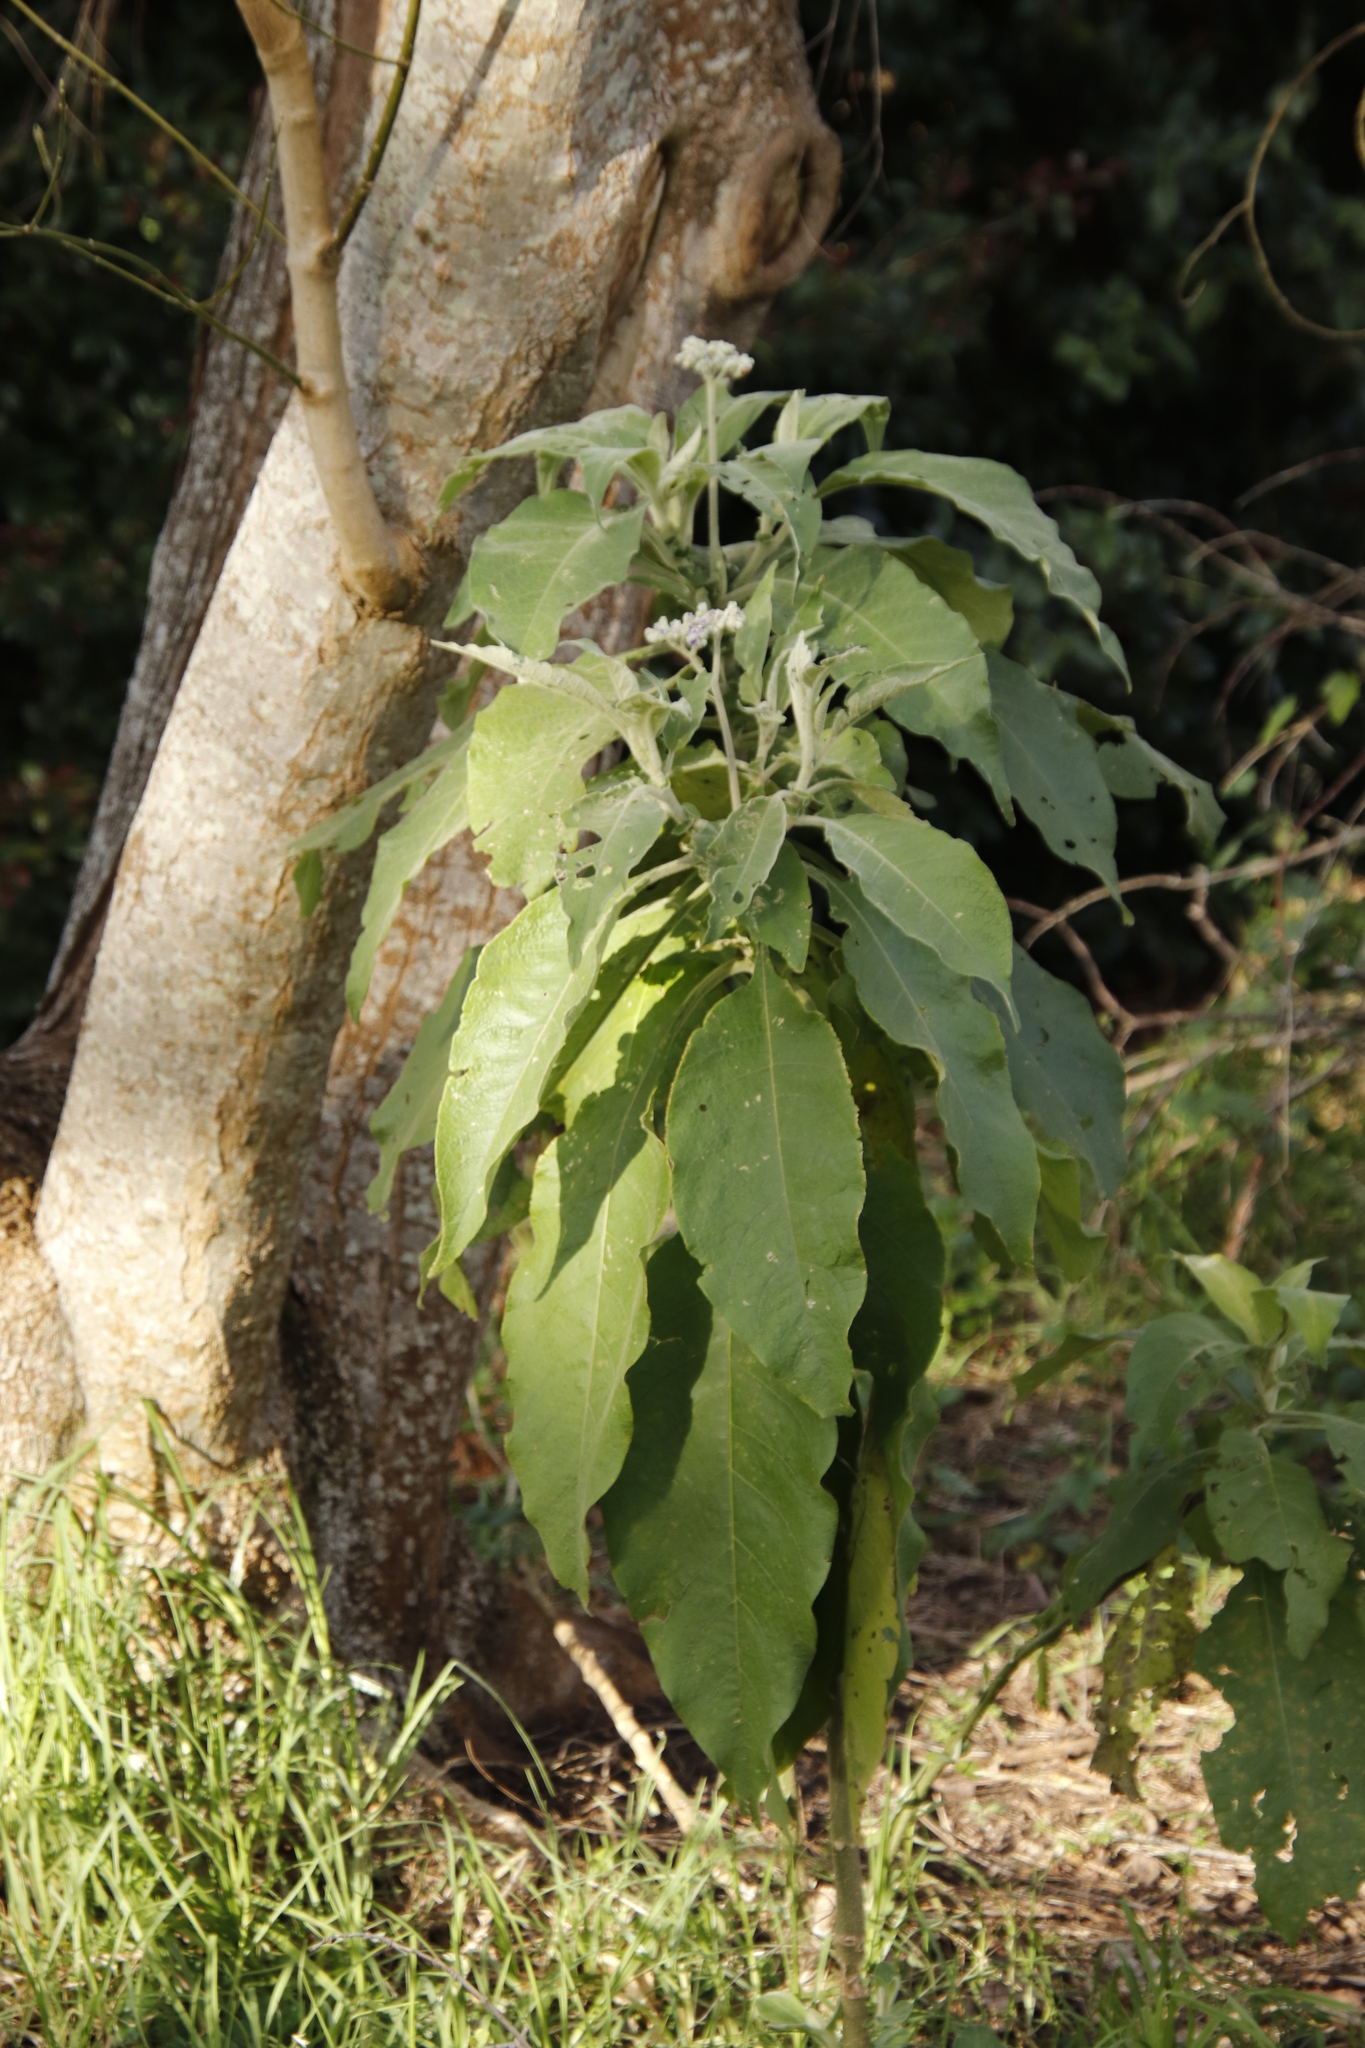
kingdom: Plantae
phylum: Tracheophyta
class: Magnoliopsida
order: Solanales
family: Solanaceae
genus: Solanum
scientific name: Solanum mauritianum
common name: Earleaf nightshade
